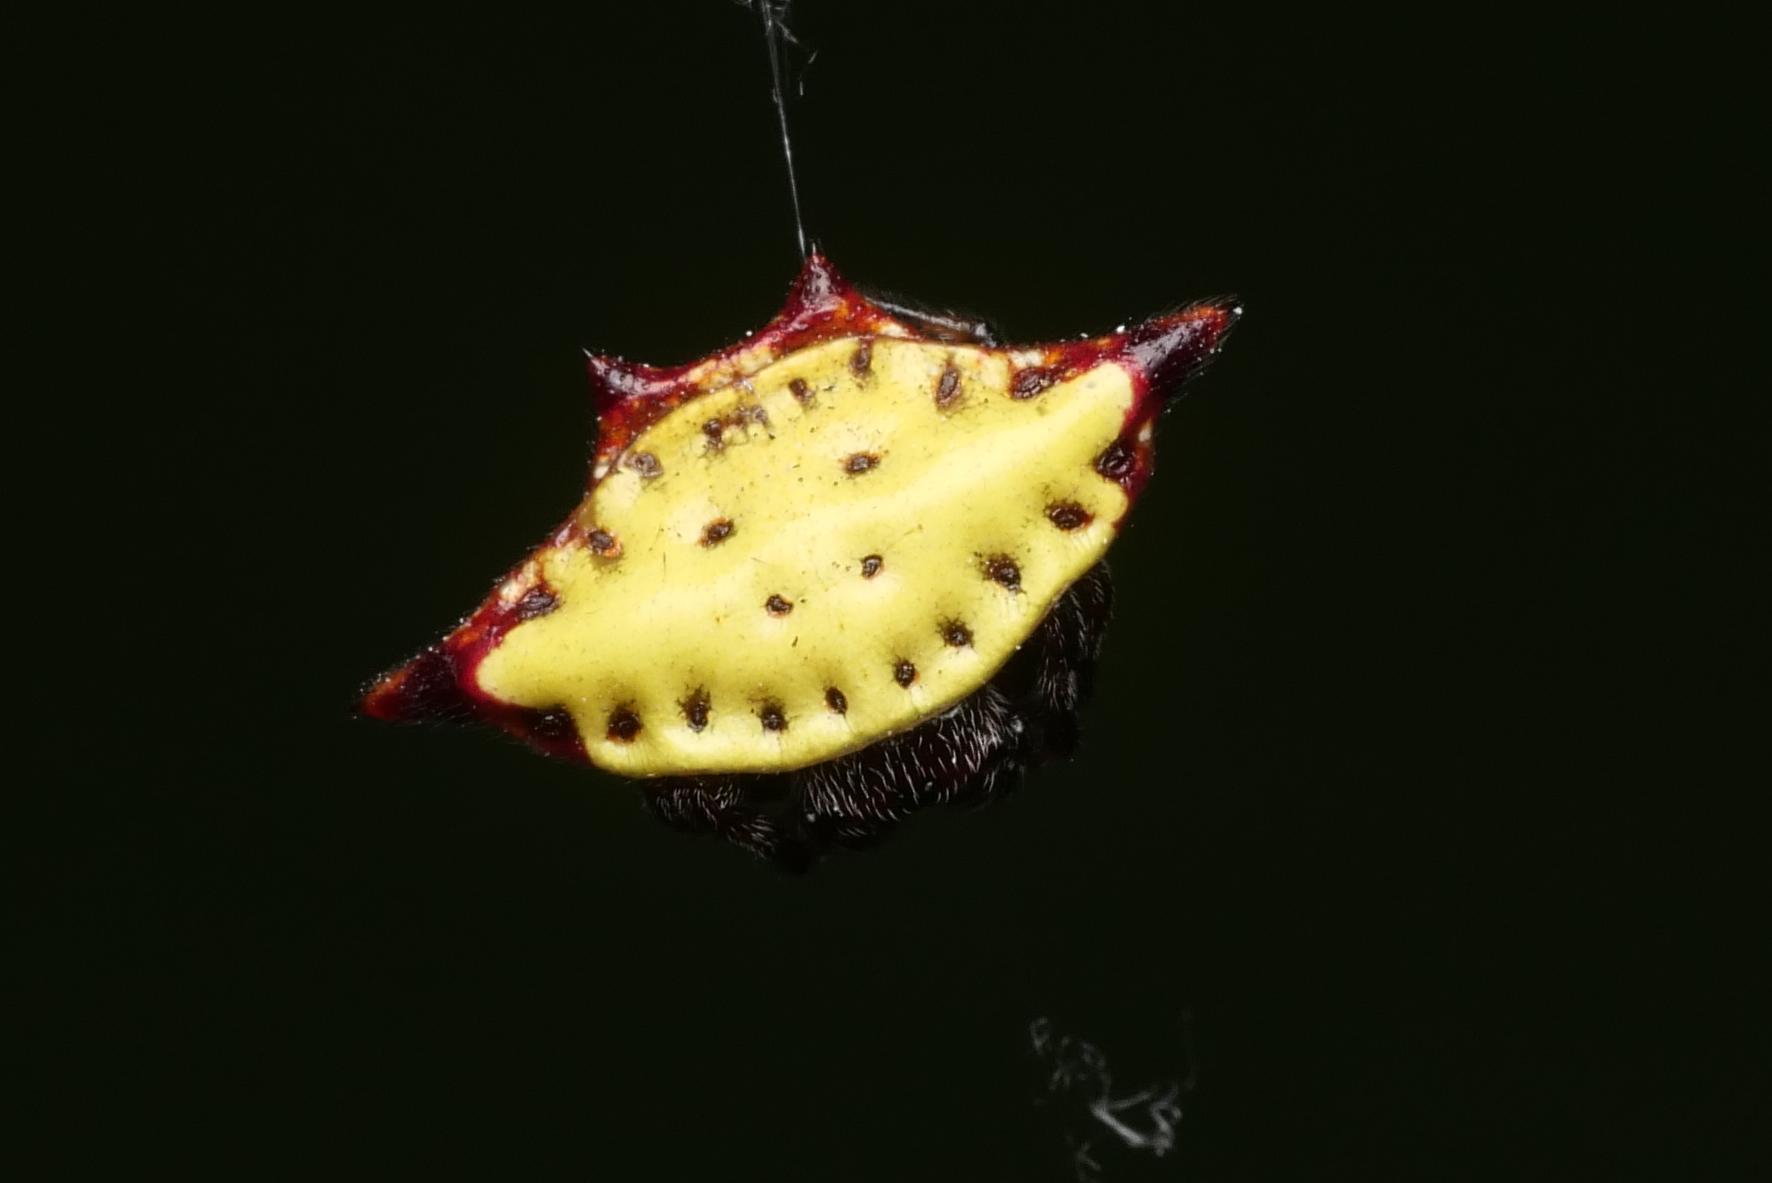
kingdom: Animalia
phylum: Arthropoda
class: Arachnida
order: Araneae
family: Araneidae
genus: Gasteracantha
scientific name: Gasteracantha cancriformis
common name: Orb weavers
